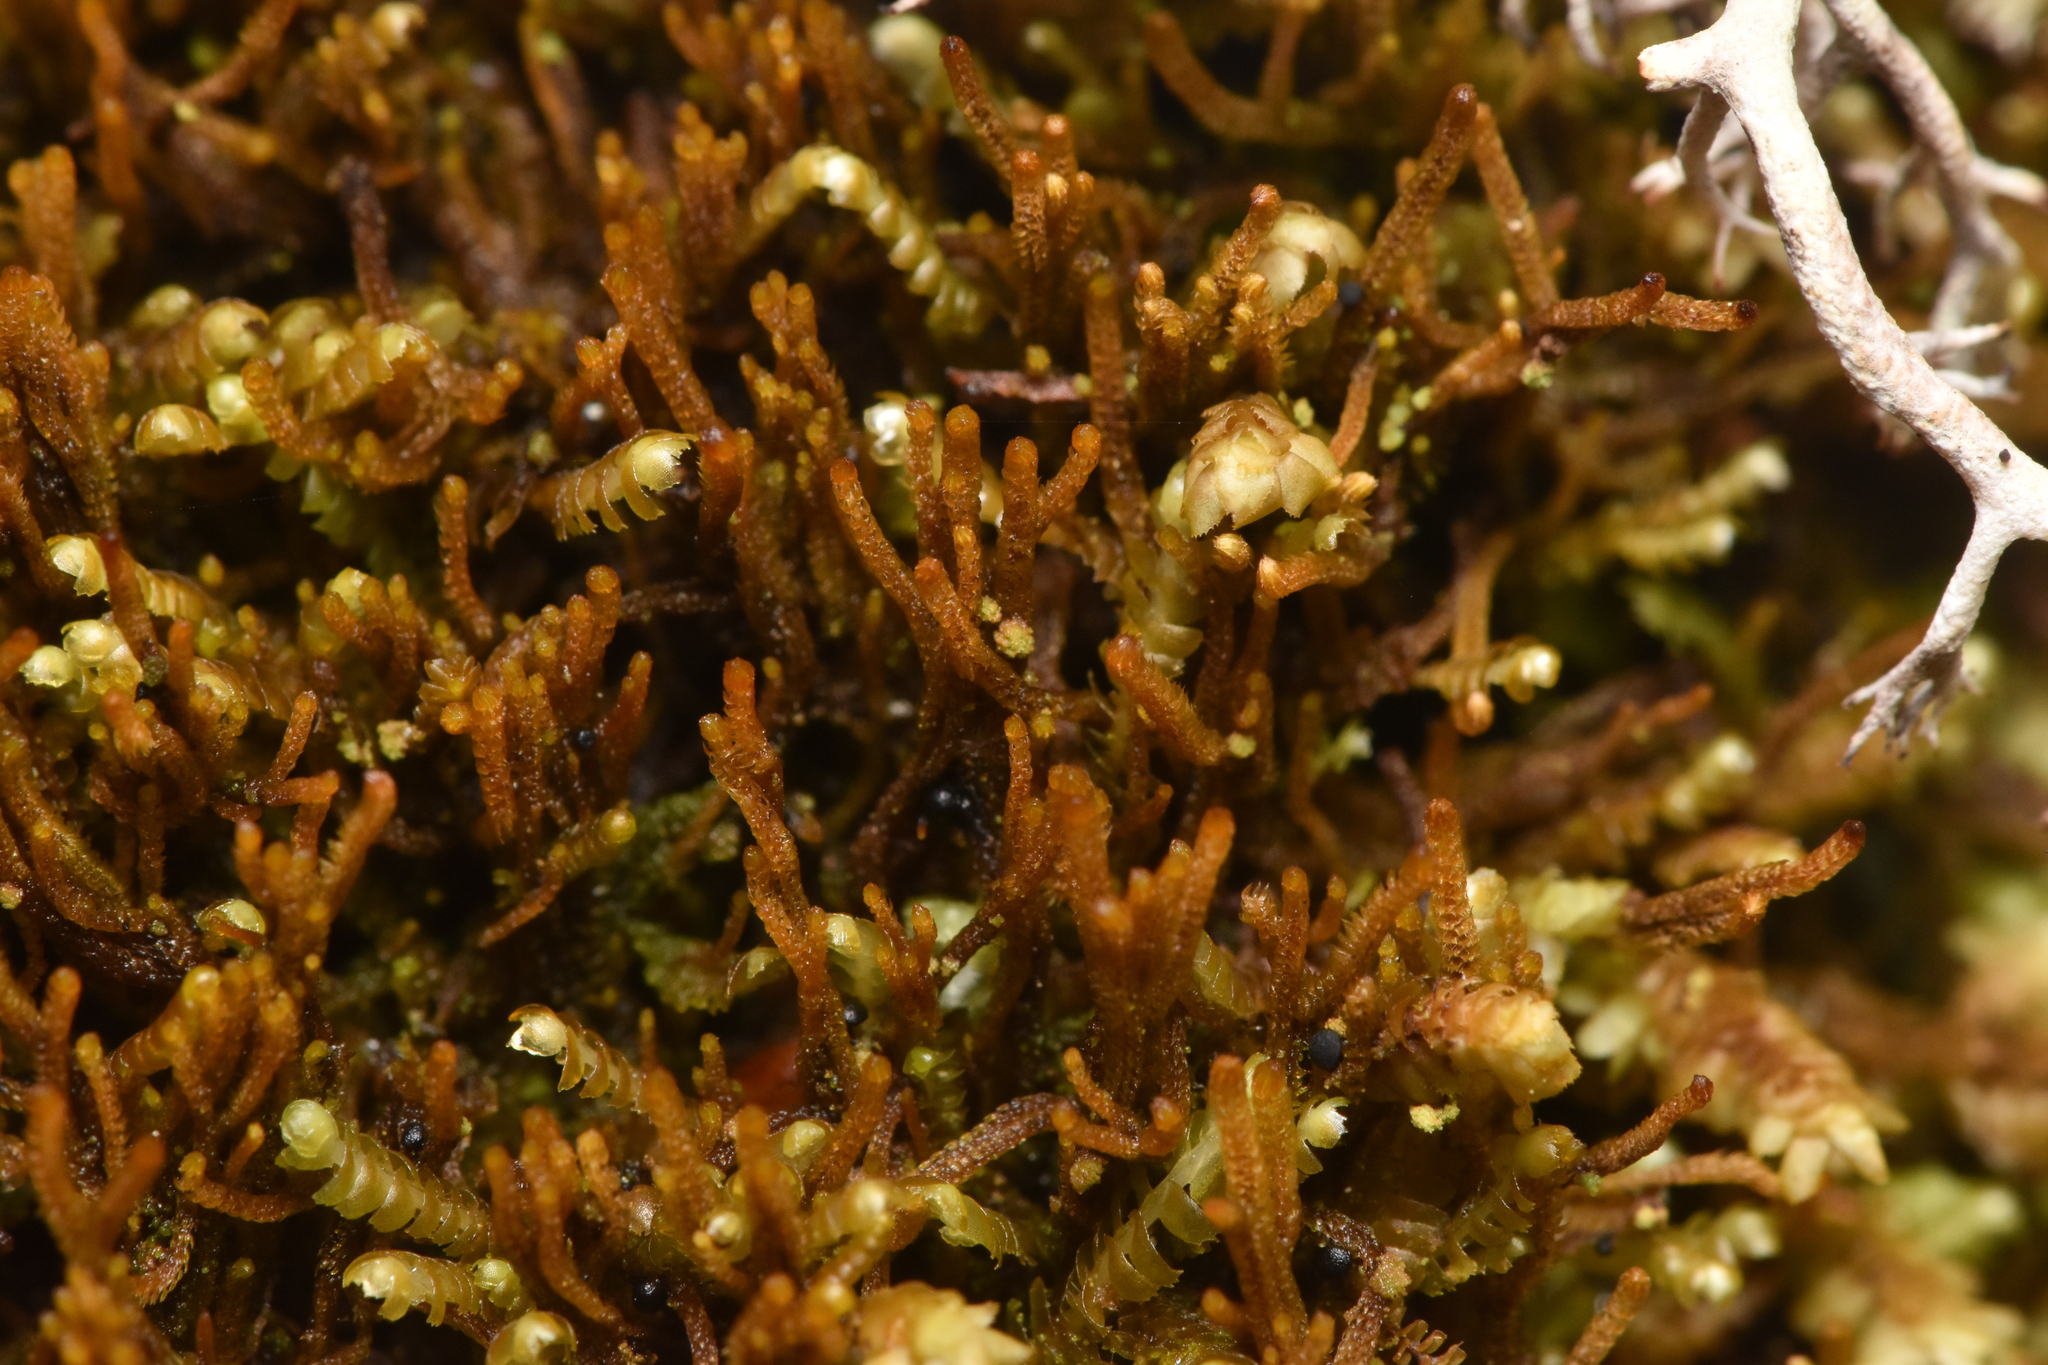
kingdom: Plantae
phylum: Marchantiophyta
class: Jungermanniopsida
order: Jungermanniales
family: Anastrophyllaceae
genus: Tetralophozia
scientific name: Tetralophozia setiformis
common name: Monster pawwort
